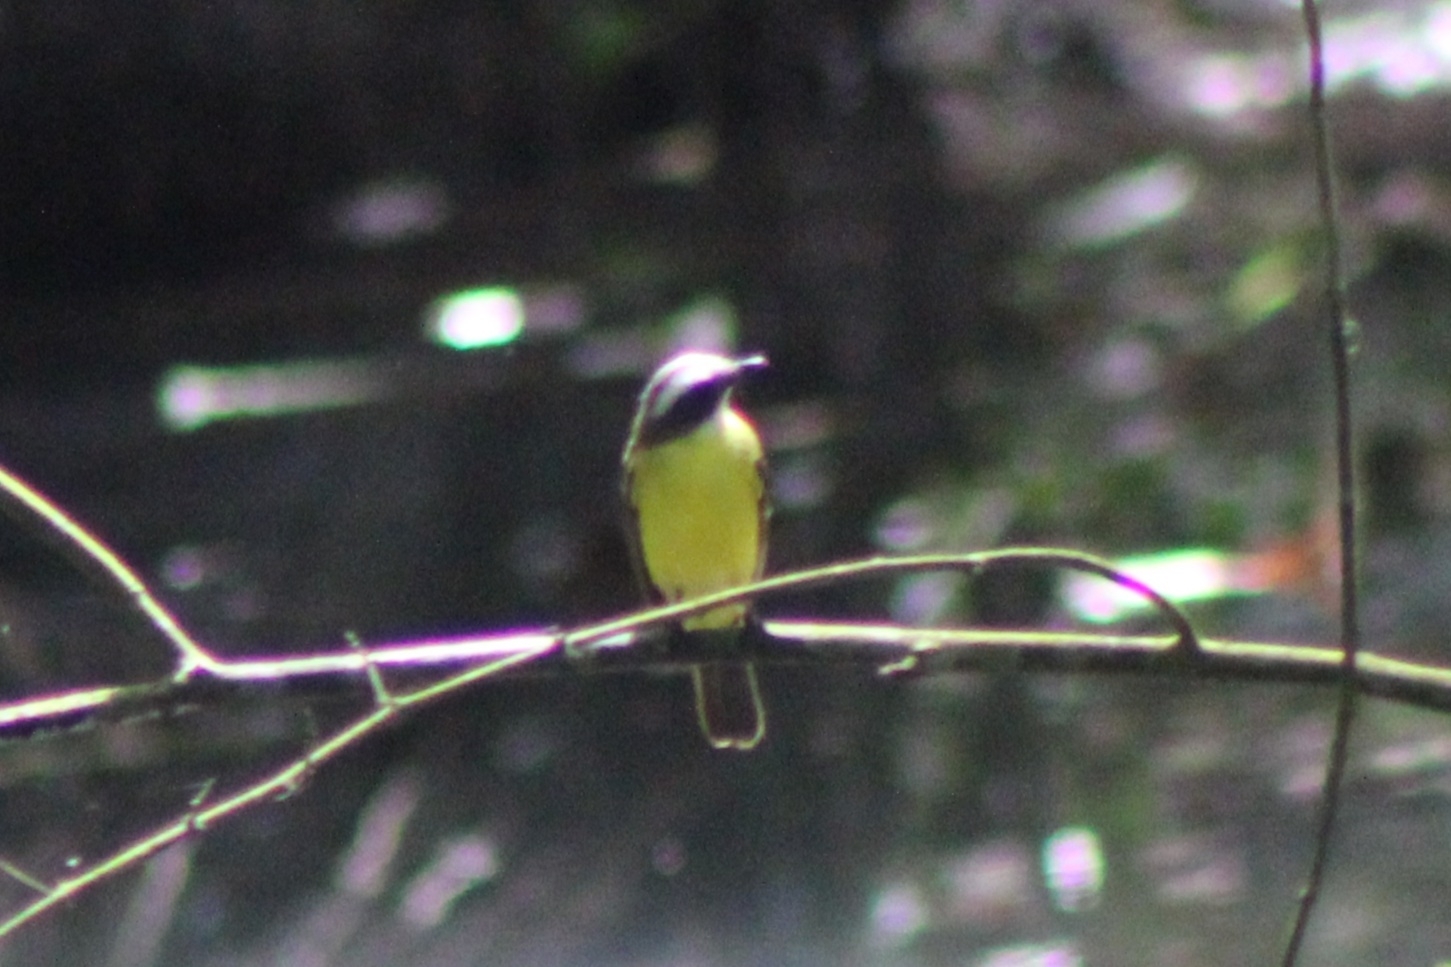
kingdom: Animalia
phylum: Chordata
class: Aves
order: Passeriformes
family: Tyrannidae
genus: Myiozetetes
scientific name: Myiozetetes similis
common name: Social flycatcher
